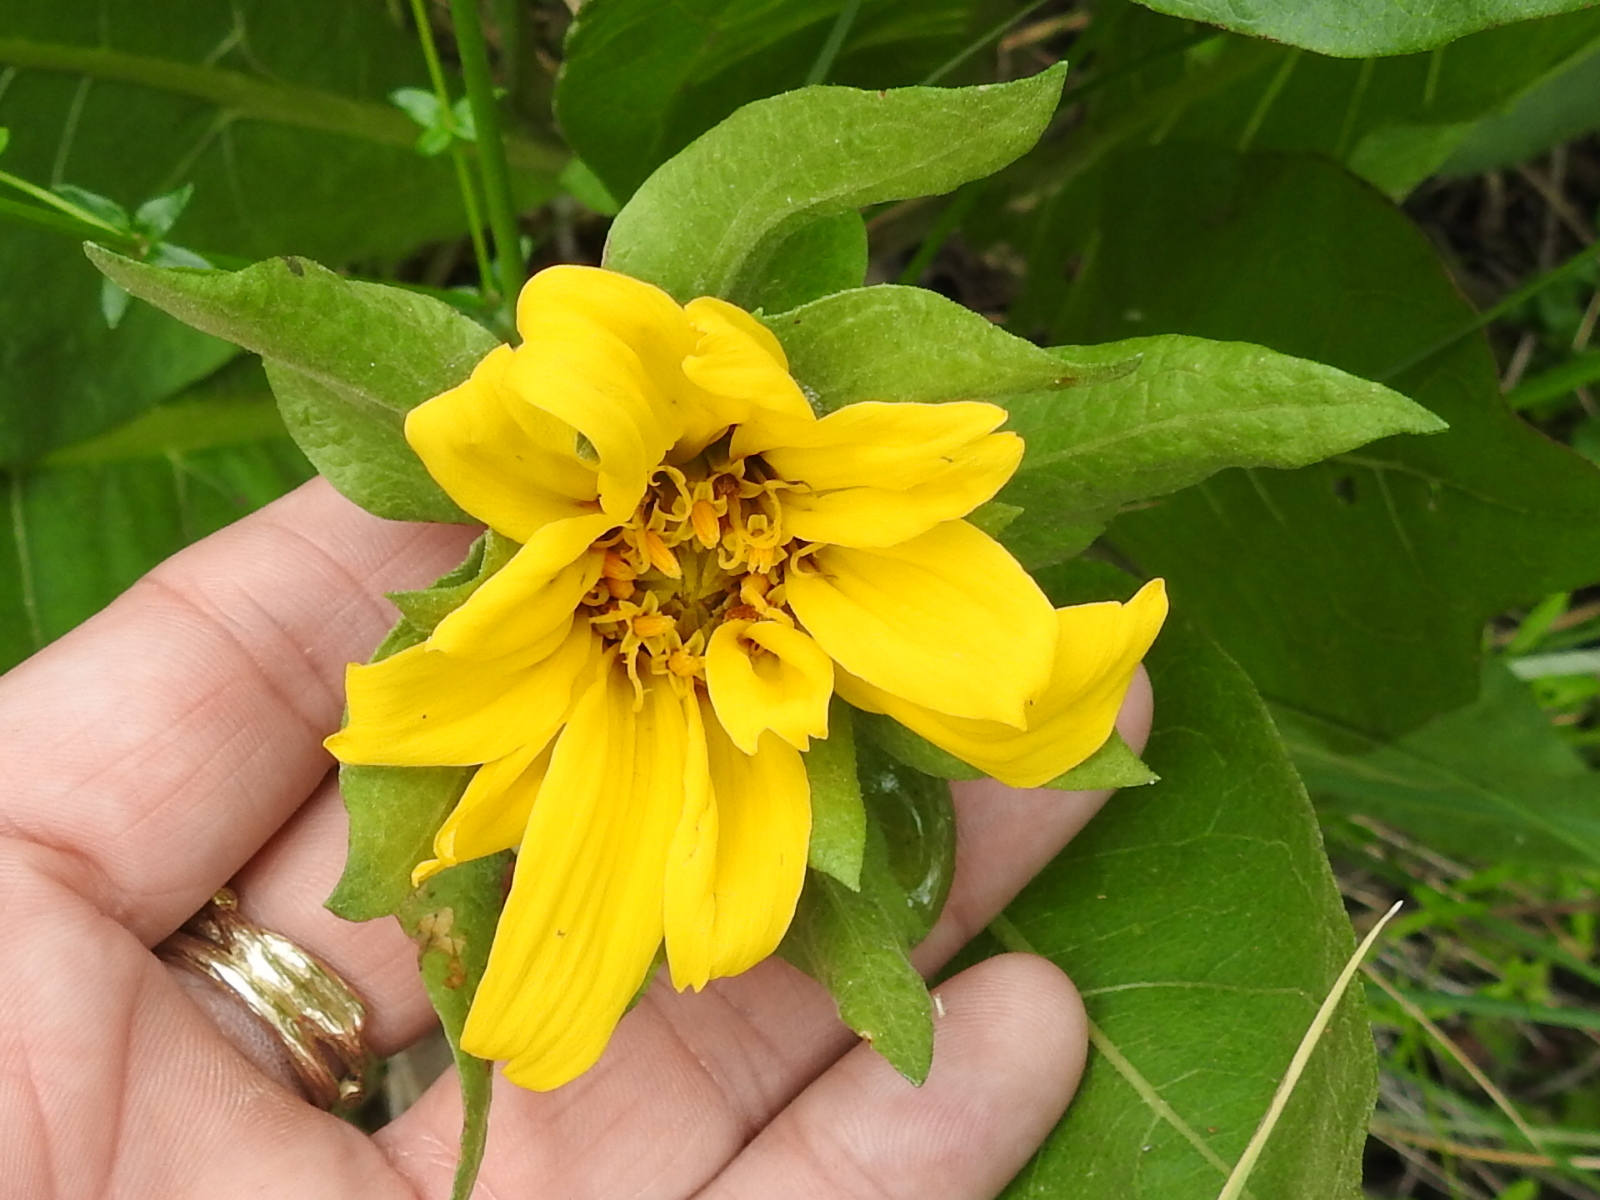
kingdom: Plantae
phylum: Tracheophyta
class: Magnoliopsida
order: Asterales
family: Asteraceae
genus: Wyethia
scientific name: Wyethia glabra
